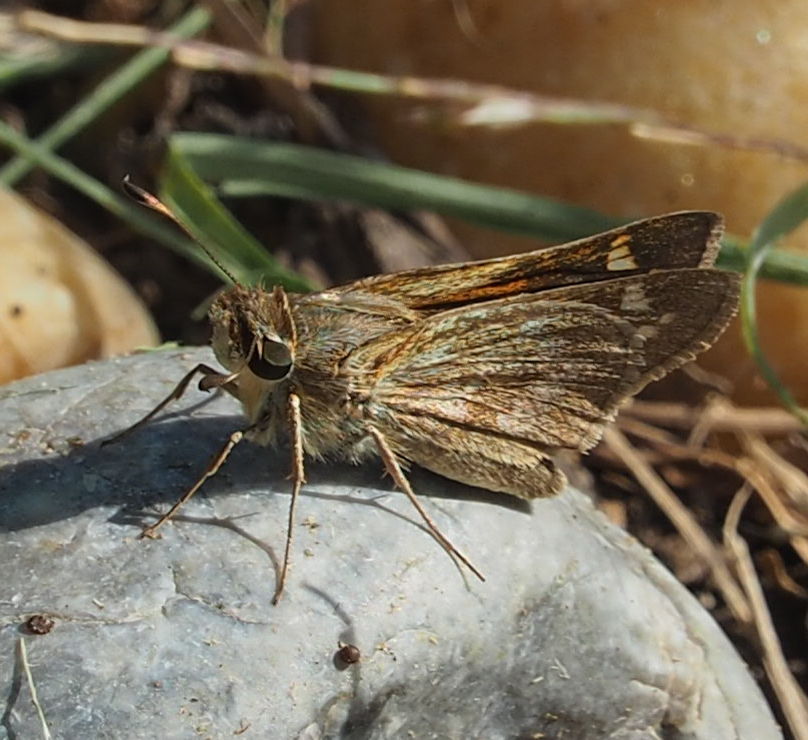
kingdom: Animalia
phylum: Arthropoda
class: Insecta
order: Lepidoptera
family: Hesperiidae
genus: Atalopedes
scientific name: Atalopedes
